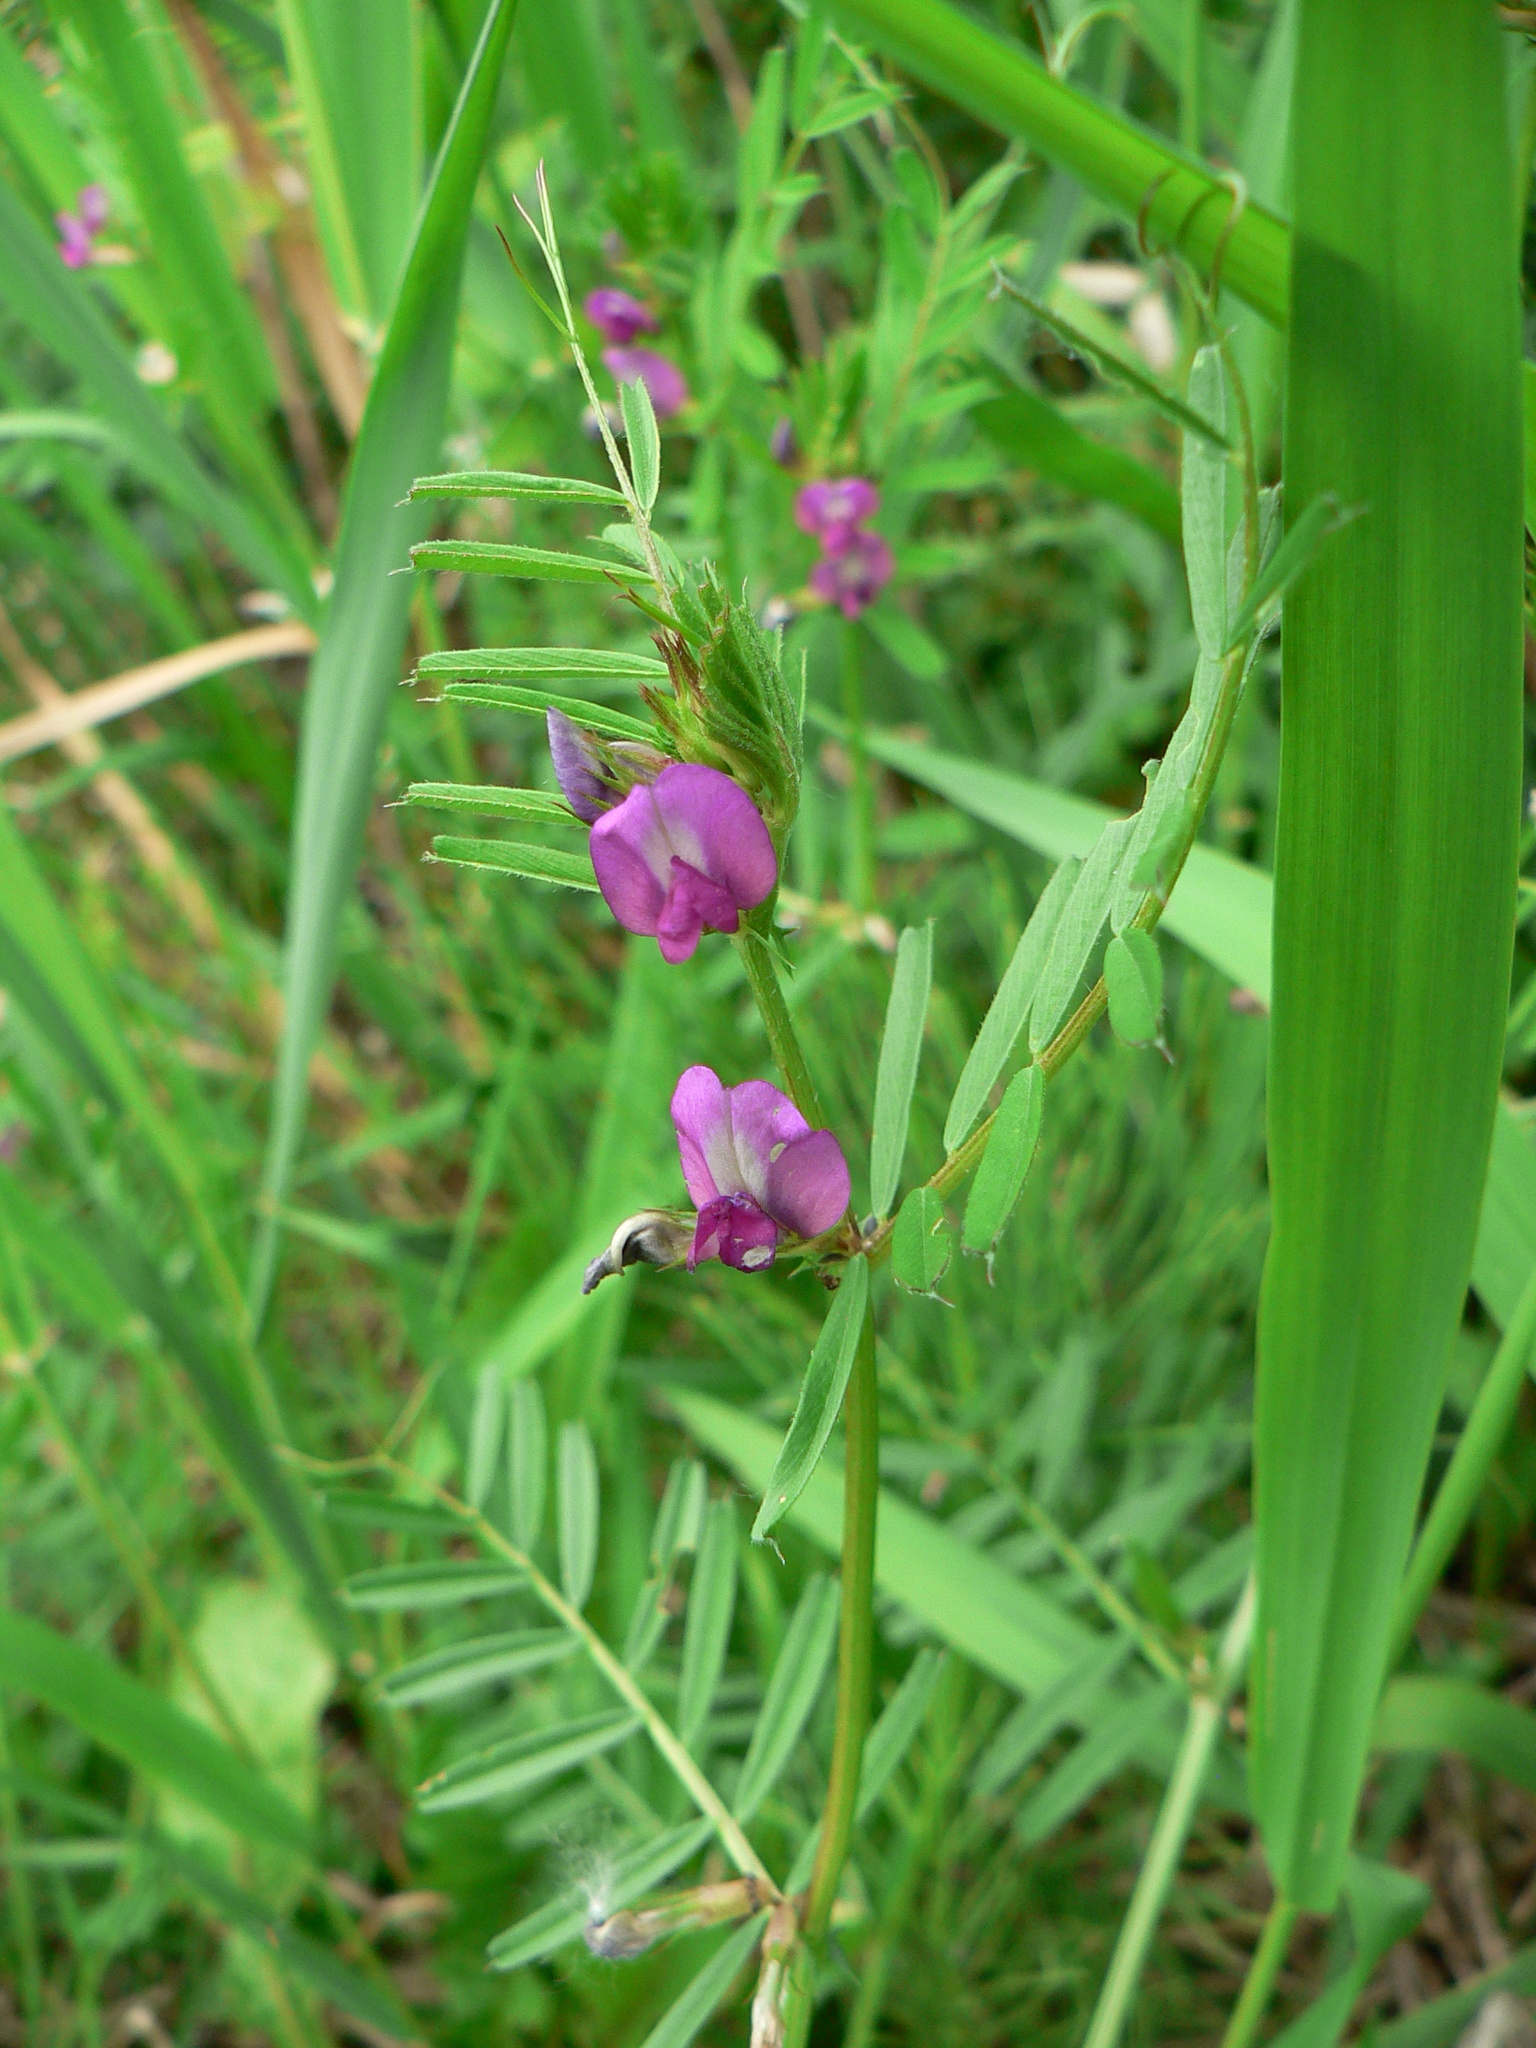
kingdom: Plantae
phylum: Tracheophyta
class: Magnoliopsida
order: Fabales
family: Fabaceae
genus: Vicia
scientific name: Vicia sativa
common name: Garden vetch
